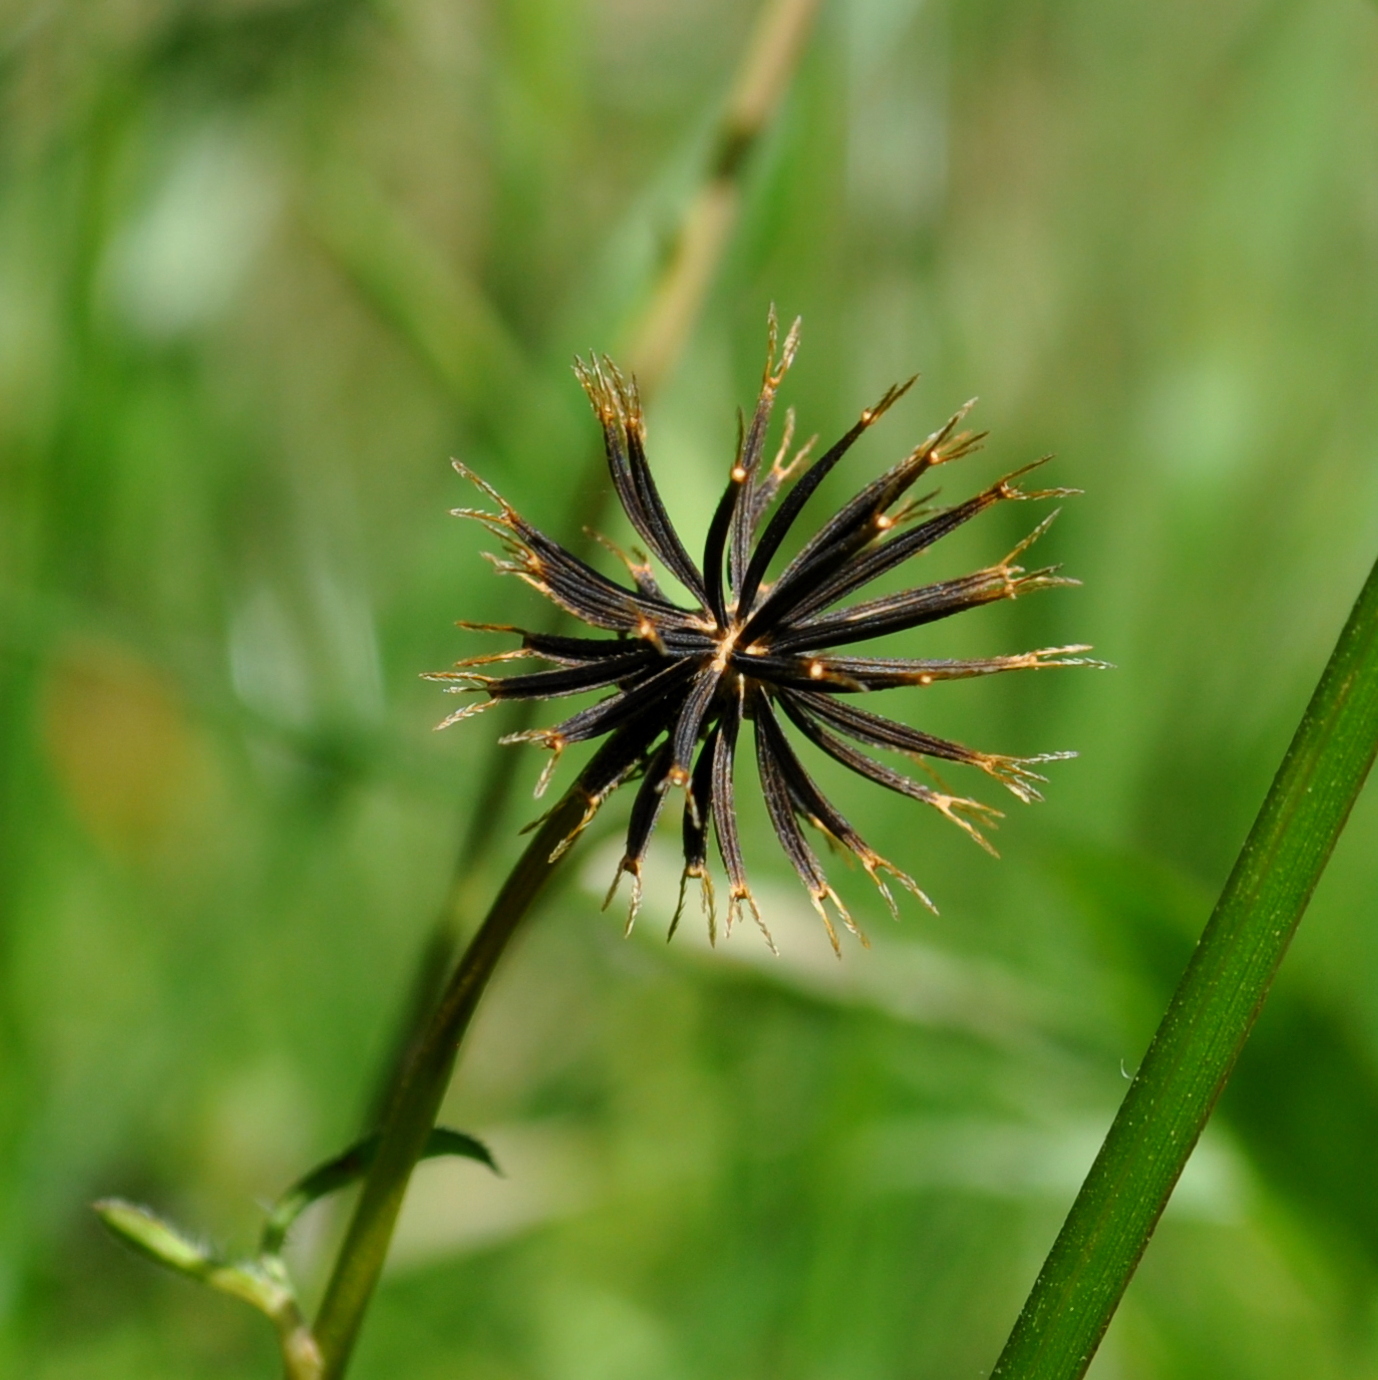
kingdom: Plantae
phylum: Tracheophyta
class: Magnoliopsida
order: Asterales
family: Asteraceae
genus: Bidens
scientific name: Bidens pilosa
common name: Black-jack
